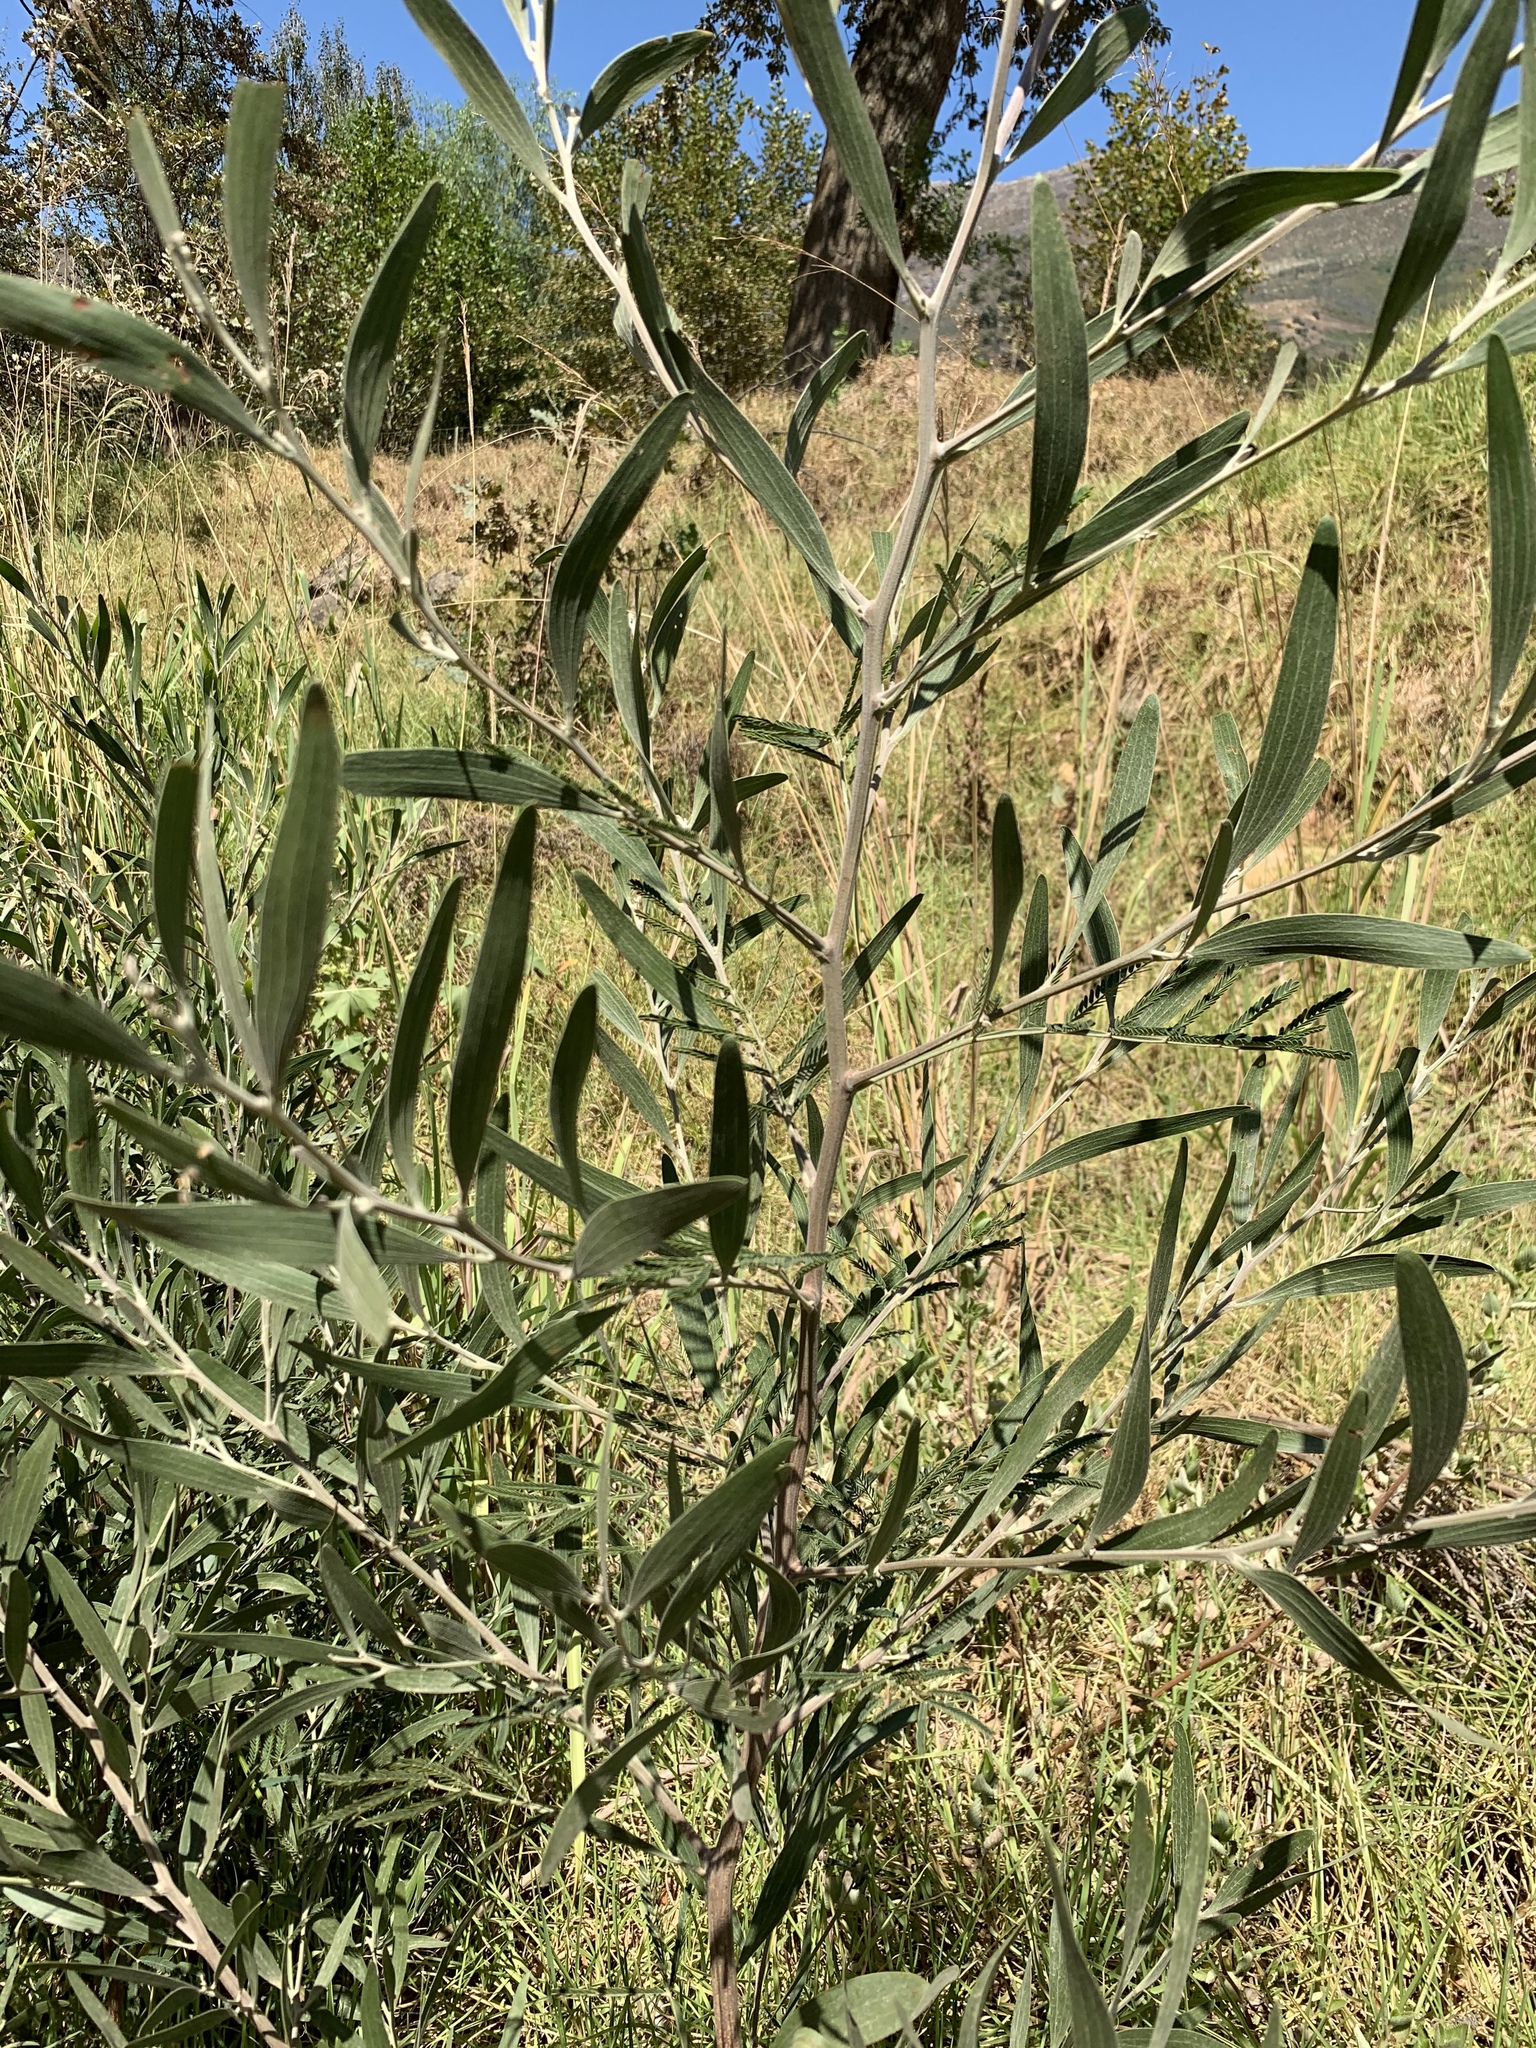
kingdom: Plantae
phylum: Tracheophyta
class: Magnoliopsida
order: Fabales
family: Fabaceae
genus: Acacia
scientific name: Acacia melanoxylon
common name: Blackwood
